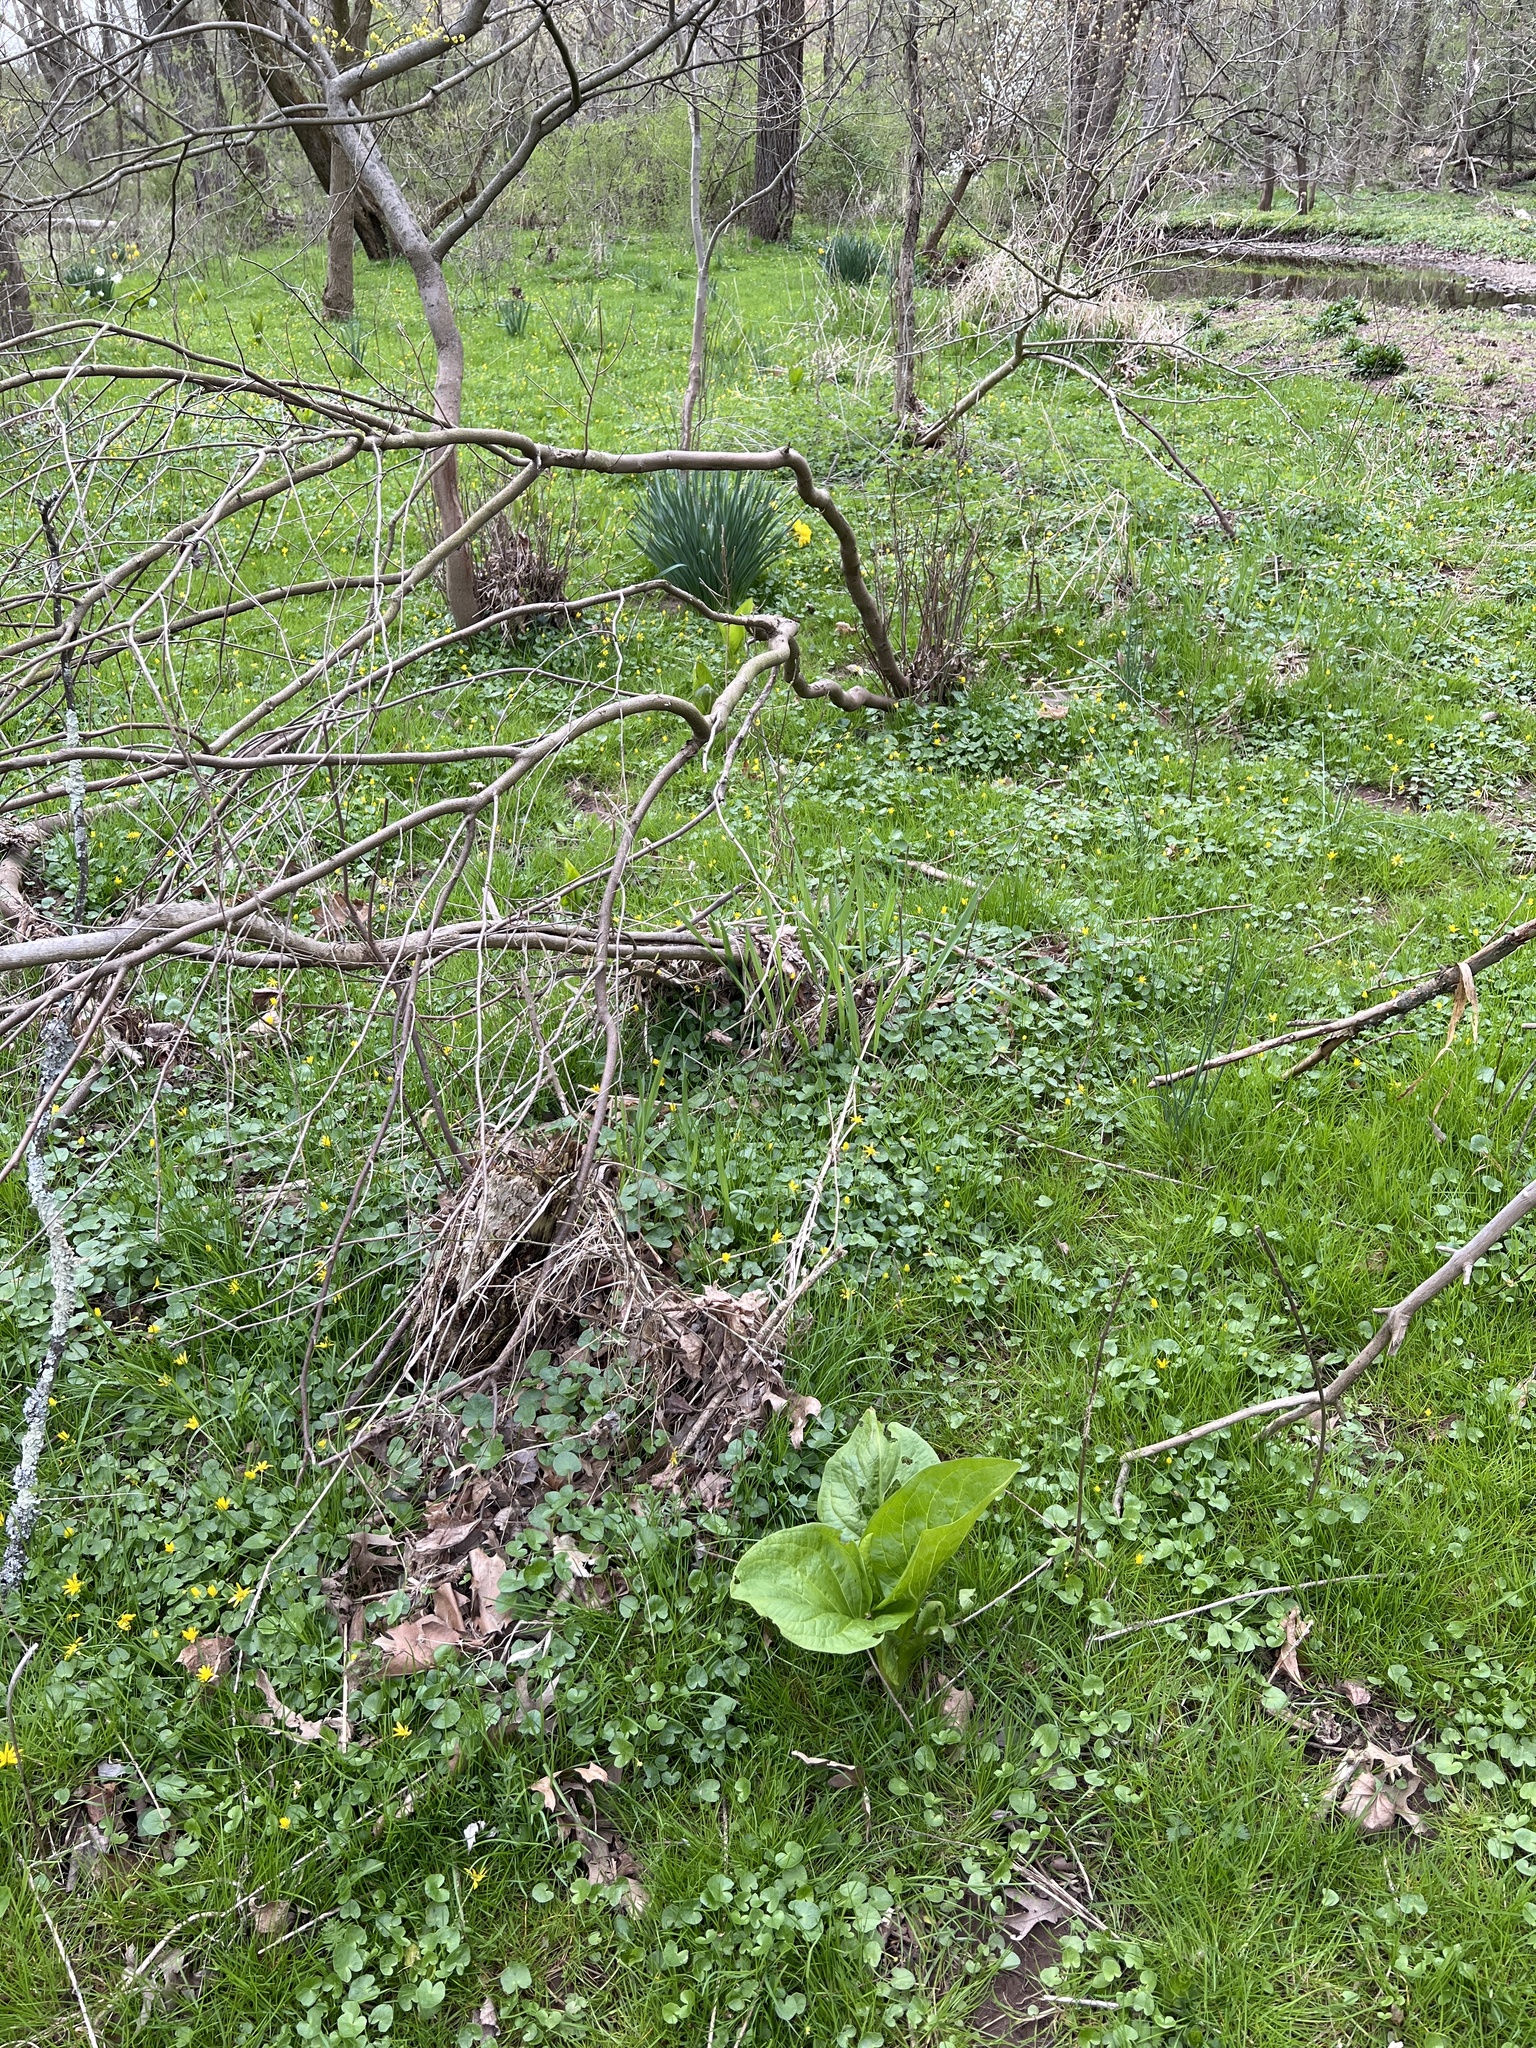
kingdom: Plantae
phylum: Tracheophyta
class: Liliopsida
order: Alismatales
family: Araceae
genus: Symplocarpus
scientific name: Symplocarpus foetidus
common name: Eastern skunk cabbage
